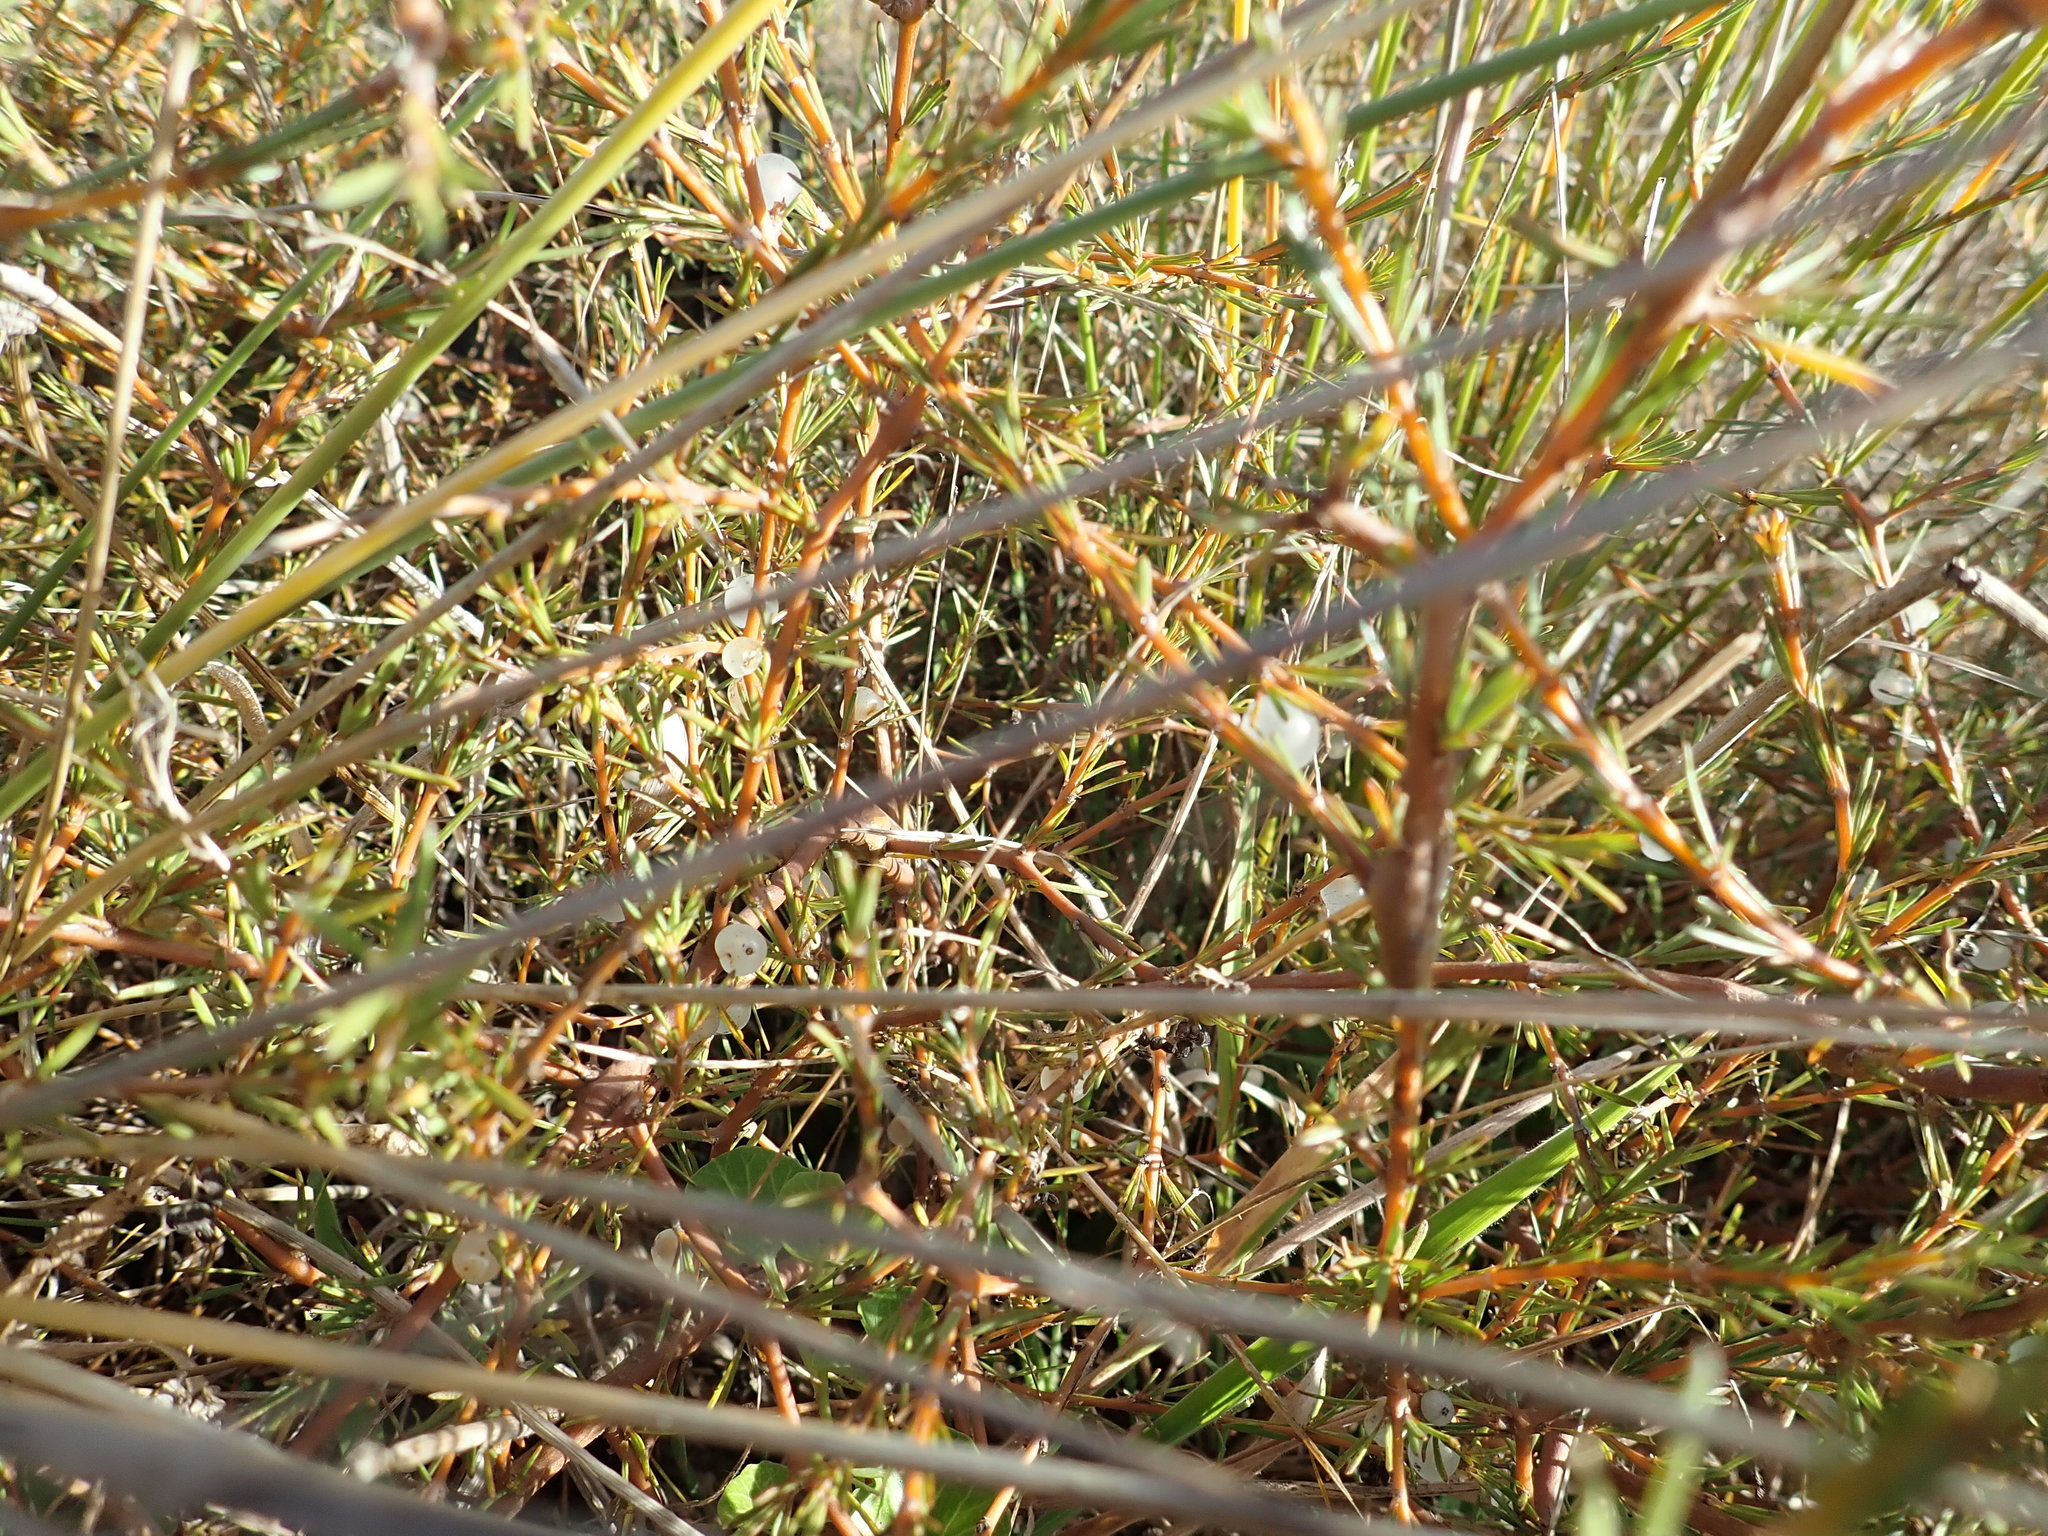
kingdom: Plantae
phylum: Tracheophyta
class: Magnoliopsida
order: Gentianales
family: Rubiaceae
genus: Coprosma
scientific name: Coprosma acerosa
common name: Sand coprosma
